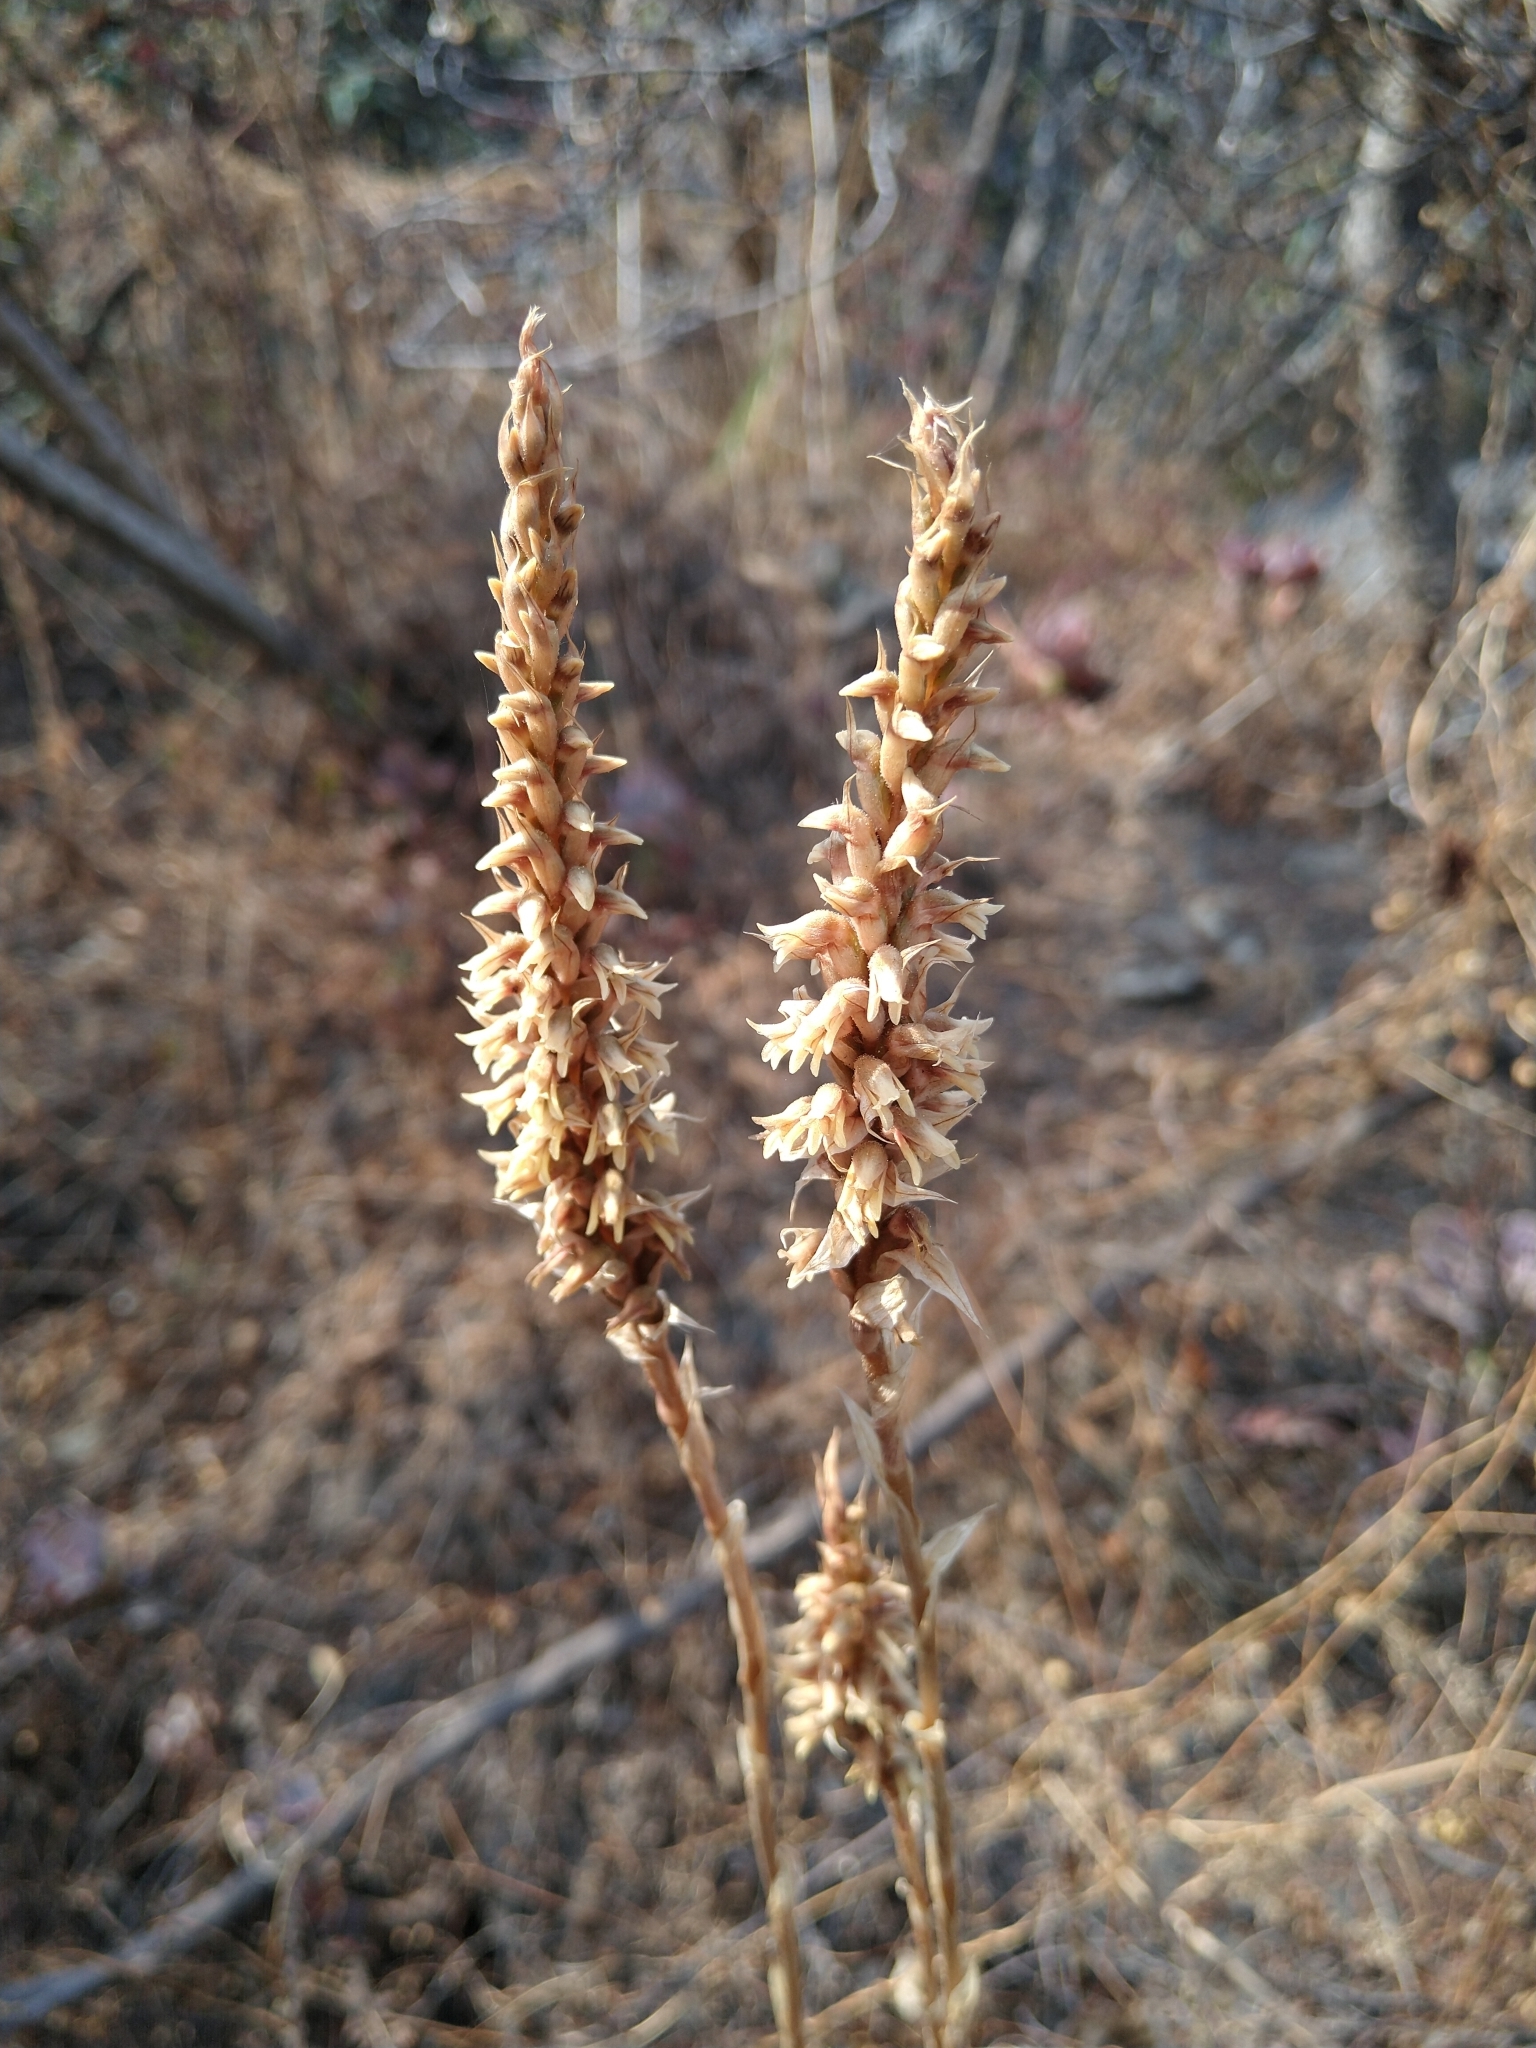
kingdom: Plantae
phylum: Tracheophyta
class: Liliopsida
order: Asparagales
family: Orchidaceae
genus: Aulosepalum
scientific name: Aulosepalum pyramidale
